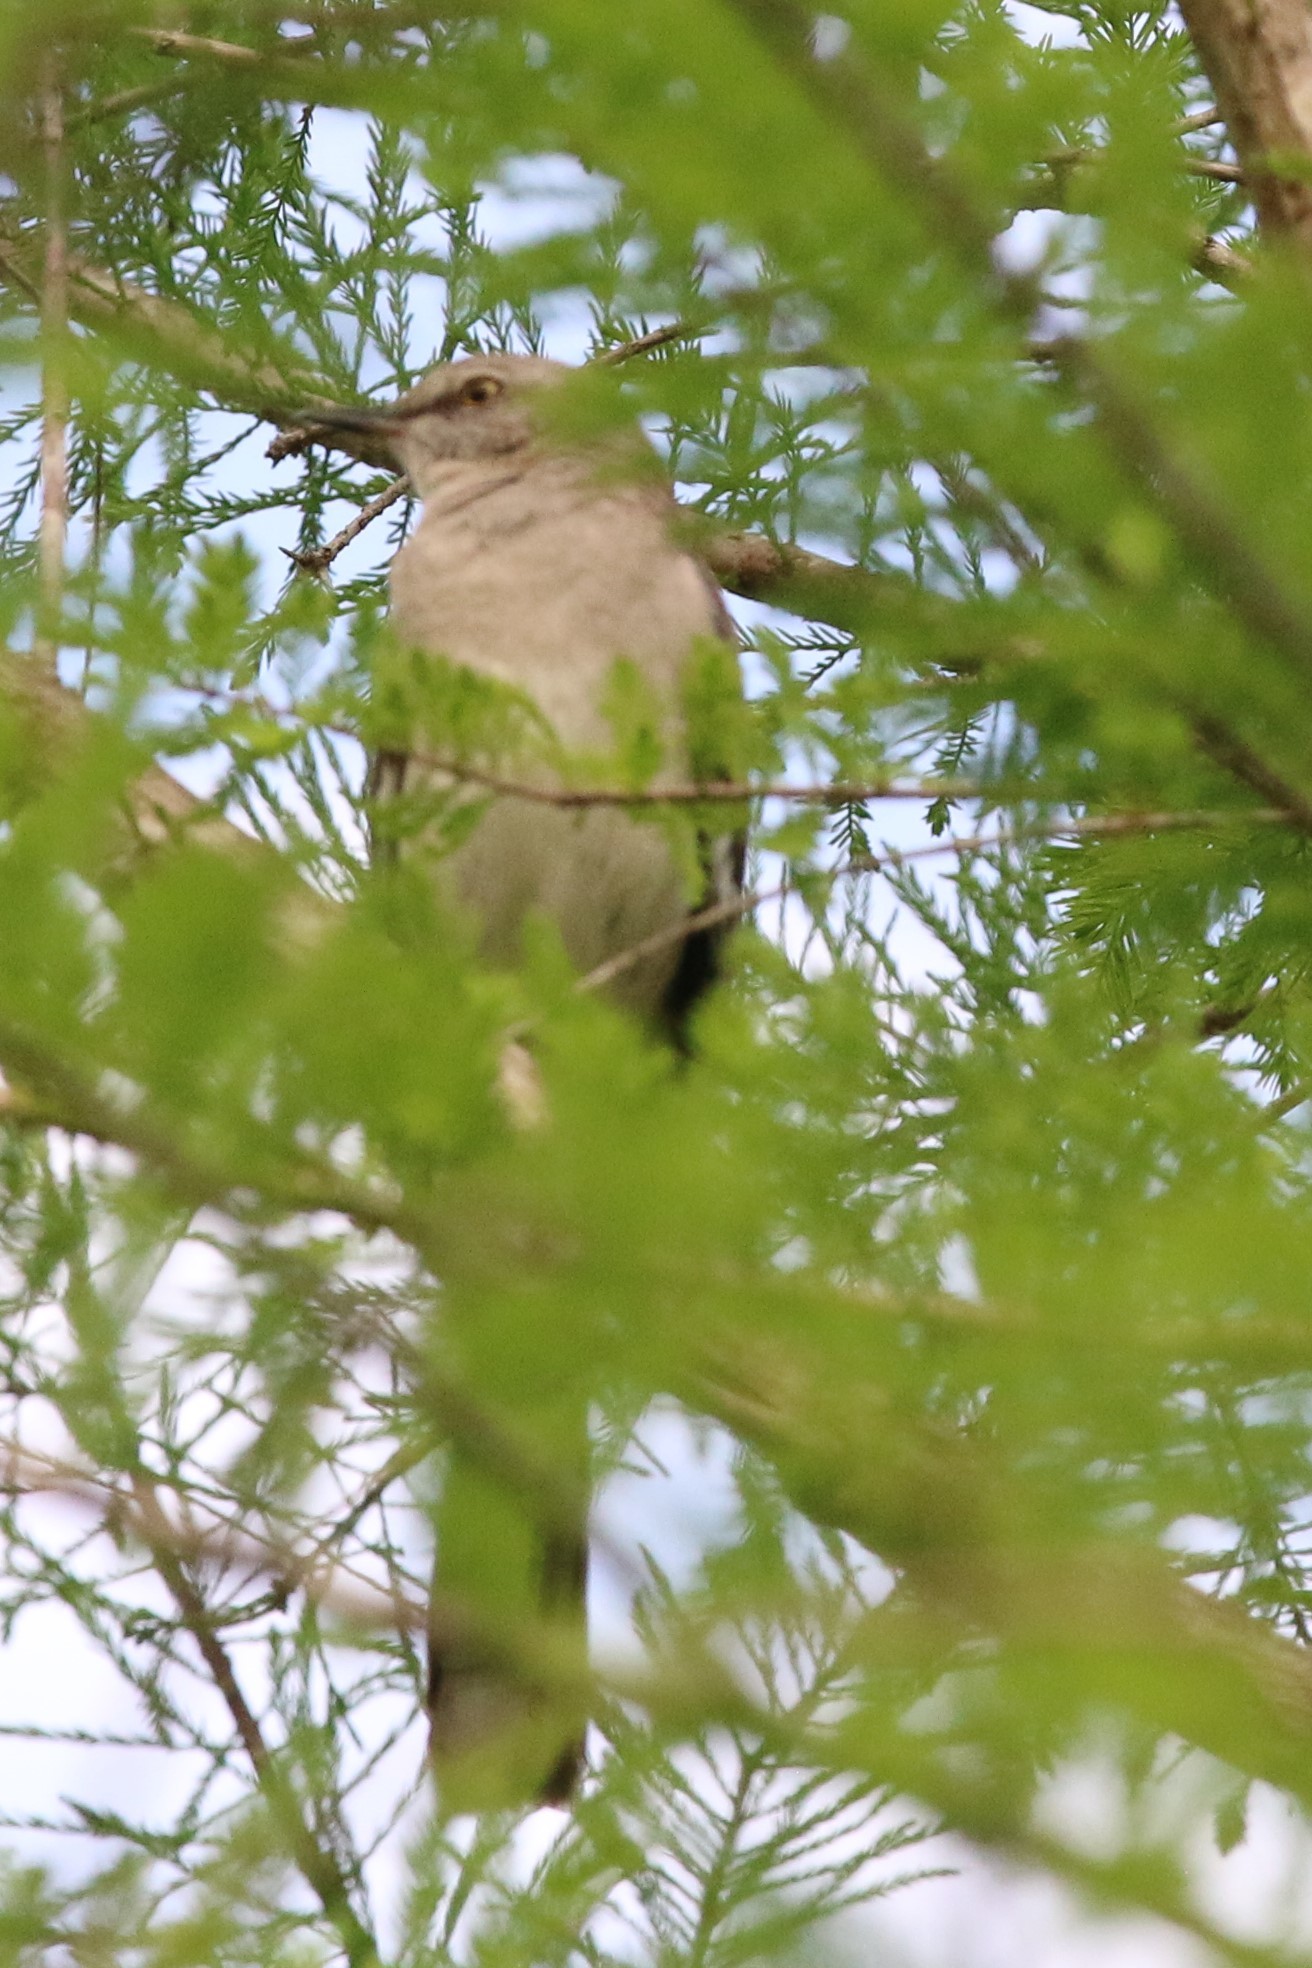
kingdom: Animalia
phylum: Chordata
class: Aves
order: Passeriformes
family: Mimidae
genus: Mimus
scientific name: Mimus polyglottos
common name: Northern mockingbird
